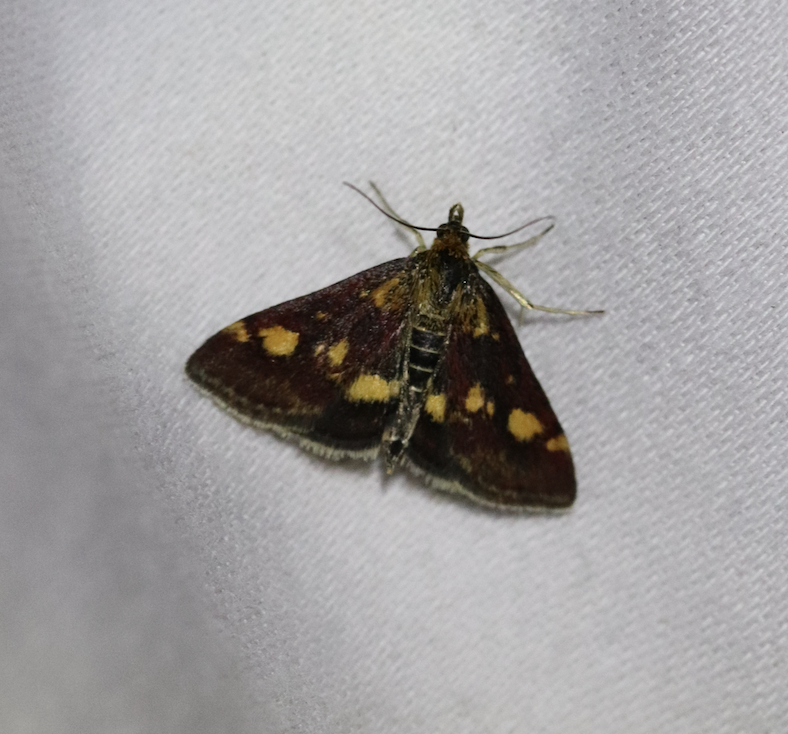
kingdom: Animalia
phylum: Arthropoda
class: Insecta
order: Lepidoptera
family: Crambidae
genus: Pyrausta
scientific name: Pyrausta aurata
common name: Small purple & gold
